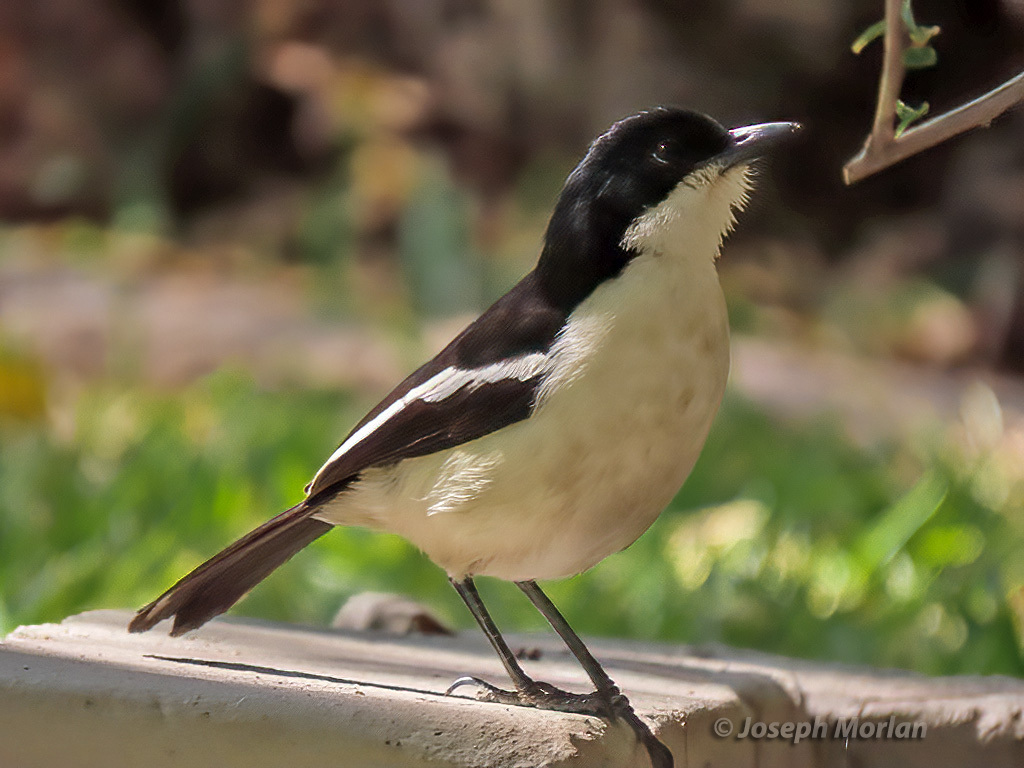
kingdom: Animalia
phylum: Chordata
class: Aves
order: Passeriformes
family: Malaconotidae
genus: Laniarius
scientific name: Laniarius bicolor
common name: Swamp boubou
